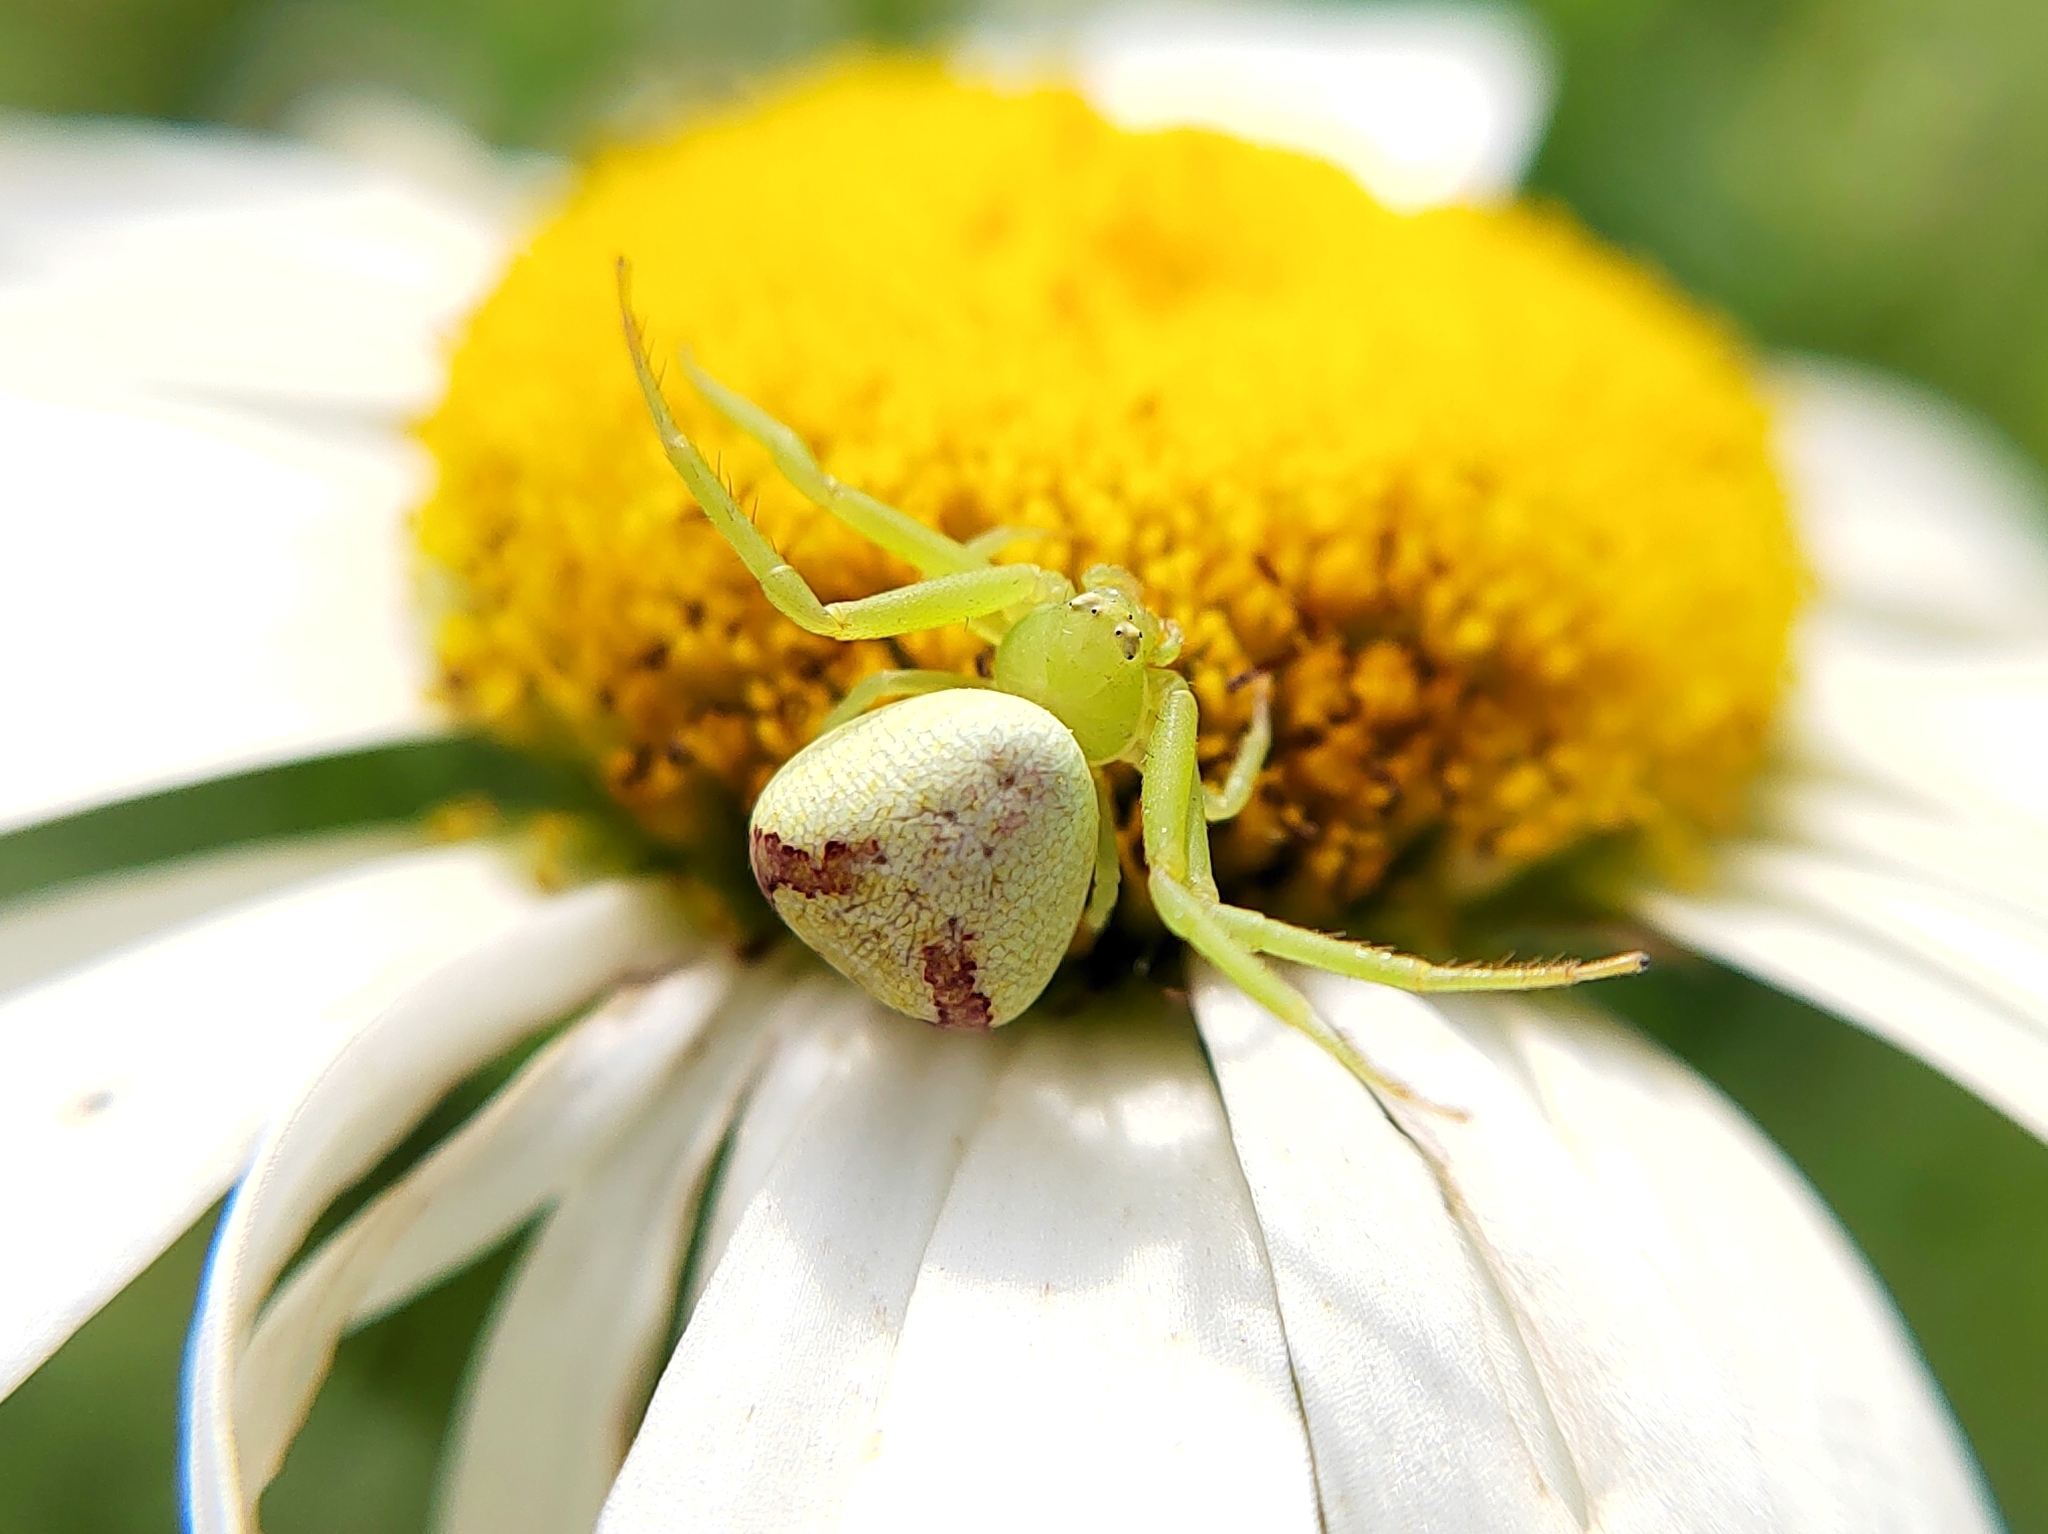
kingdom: Animalia
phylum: Arthropoda
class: Arachnida
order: Araneae
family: Thomisidae
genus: Ebrechtella
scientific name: Ebrechtella tricuspidata
